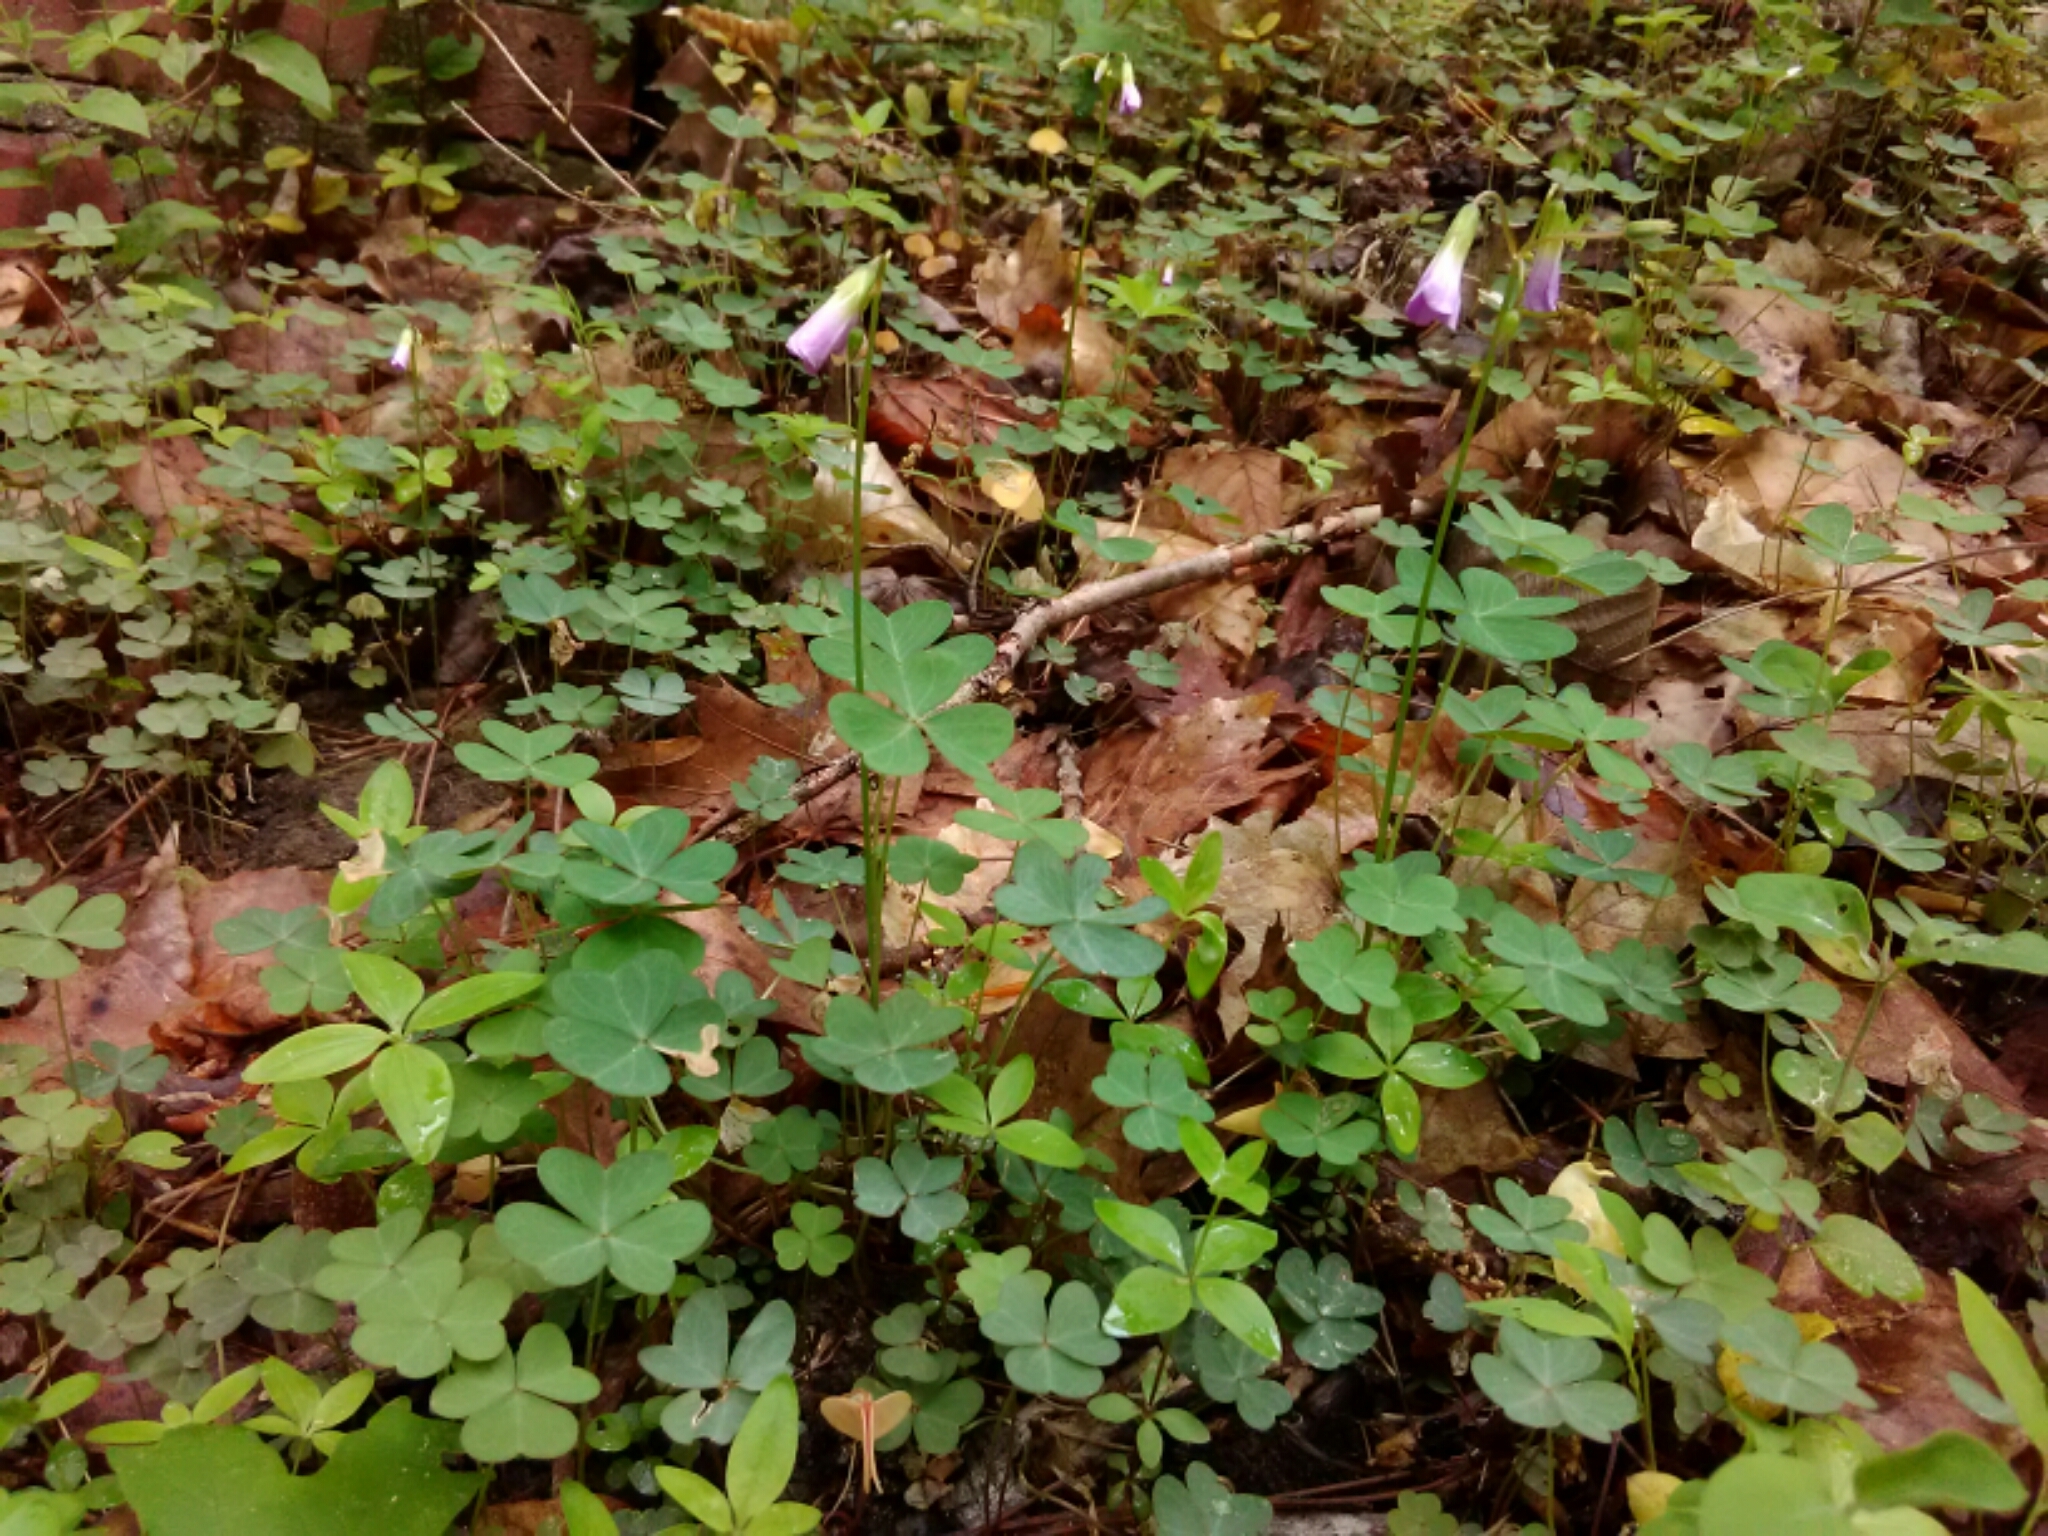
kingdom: Plantae
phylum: Tracheophyta
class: Magnoliopsida
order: Oxalidales
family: Oxalidaceae
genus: Oxalis
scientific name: Oxalis violacea
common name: Violet wood-sorrel
